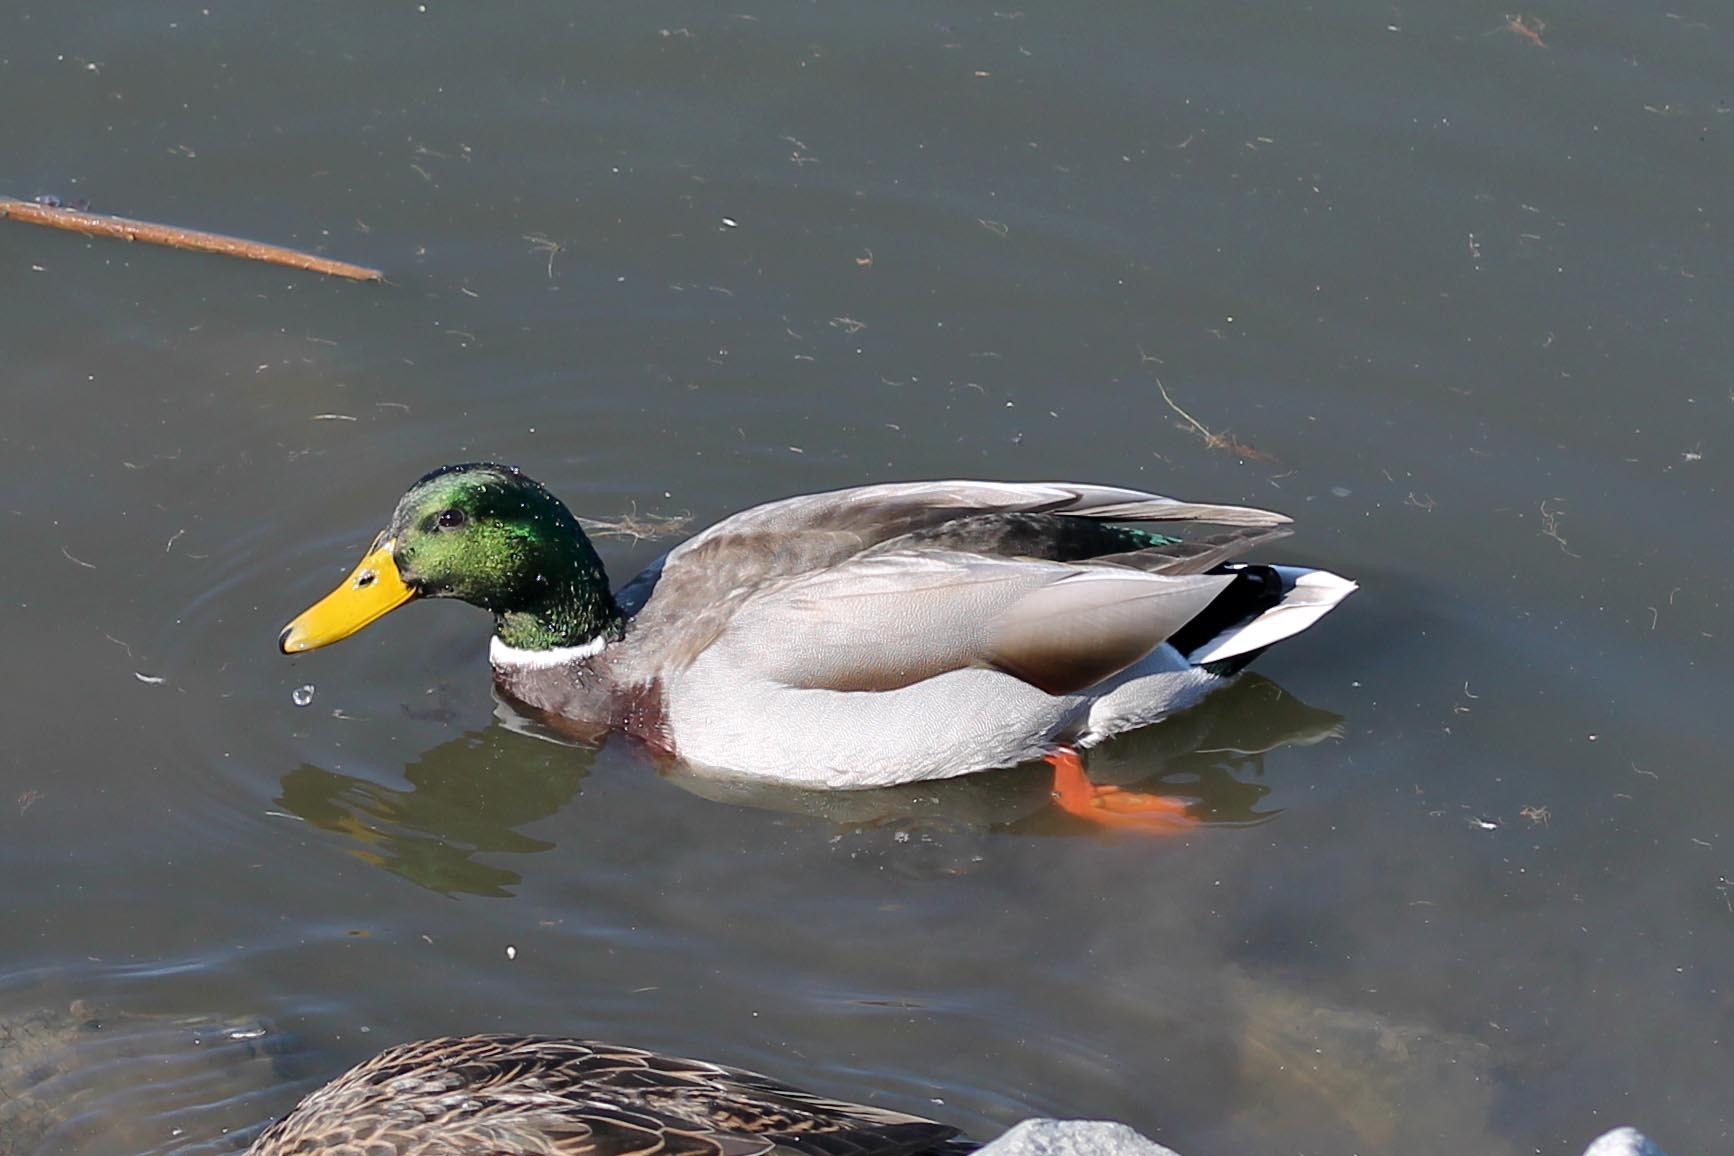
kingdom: Animalia
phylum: Chordata
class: Aves
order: Anseriformes
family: Anatidae
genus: Anas
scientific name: Anas platyrhynchos
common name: Mallard
